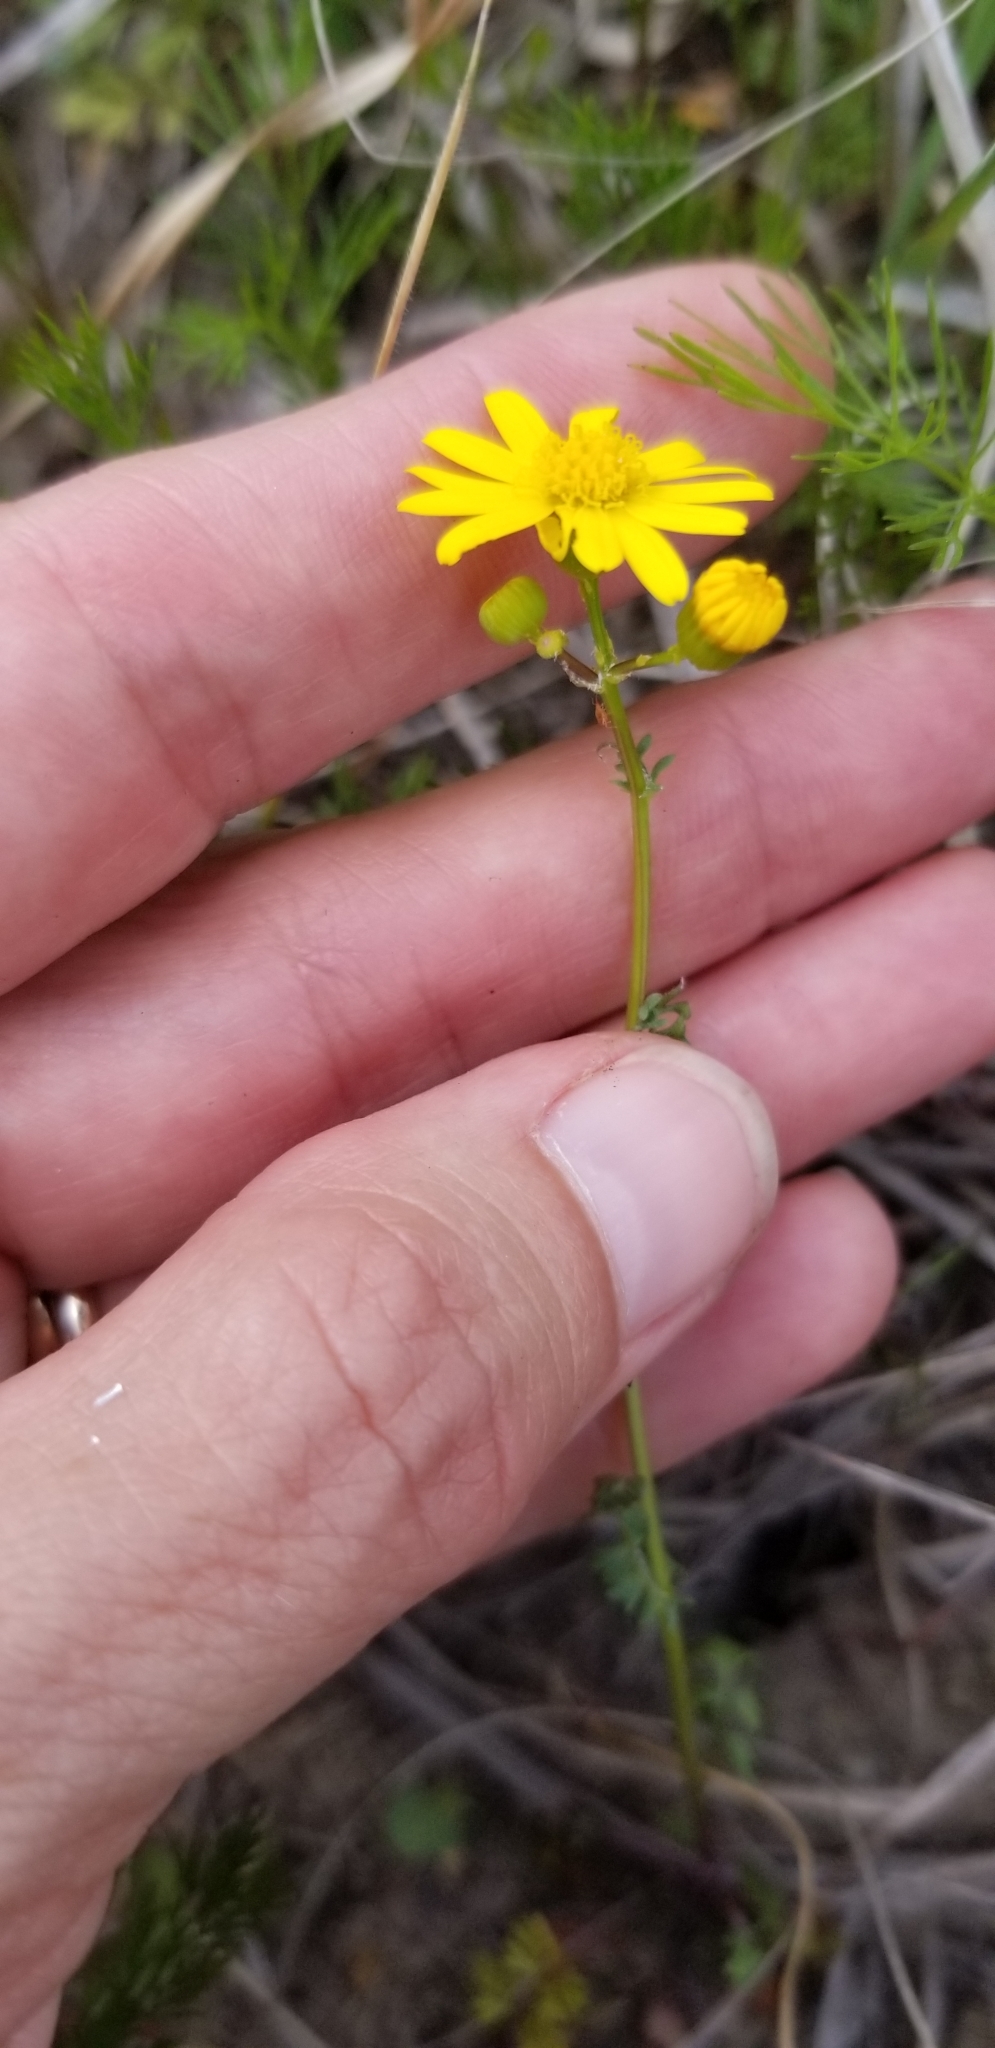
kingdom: Plantae
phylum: Tracheophyta
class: Magnoliopsida
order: Asterales
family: Asteraceae
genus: Packera
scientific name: Packera tampicana
